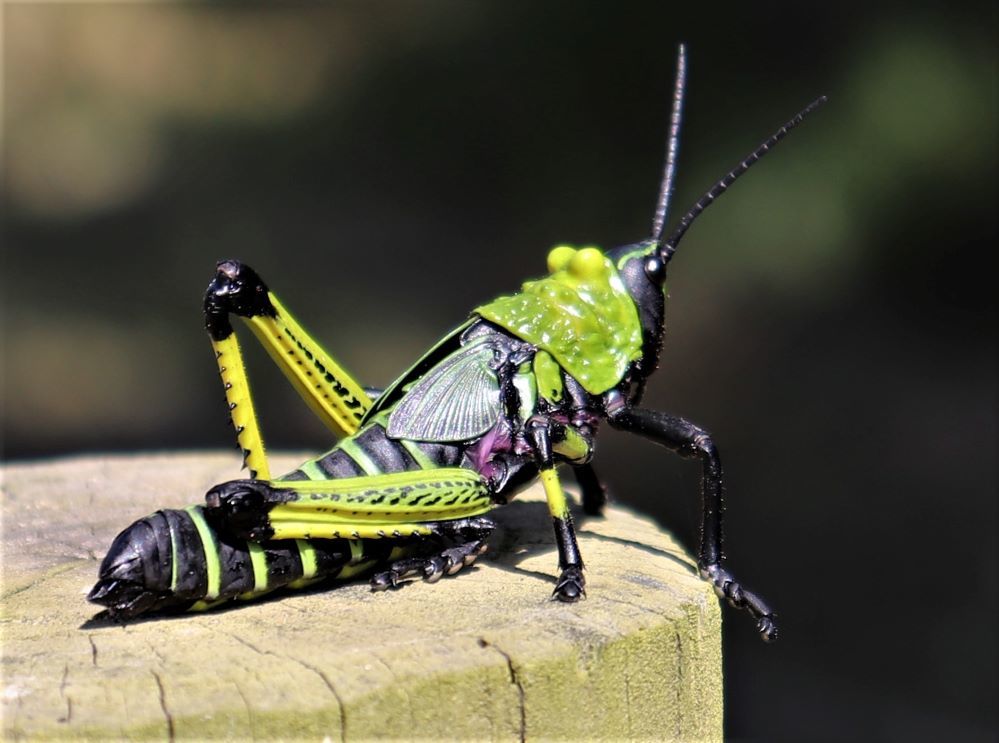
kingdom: Animalia
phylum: Arthropoda
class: Insecta
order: Orthoptera
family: Pyrgomorphidae
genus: Phymateus
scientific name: Phymateus leprosus
